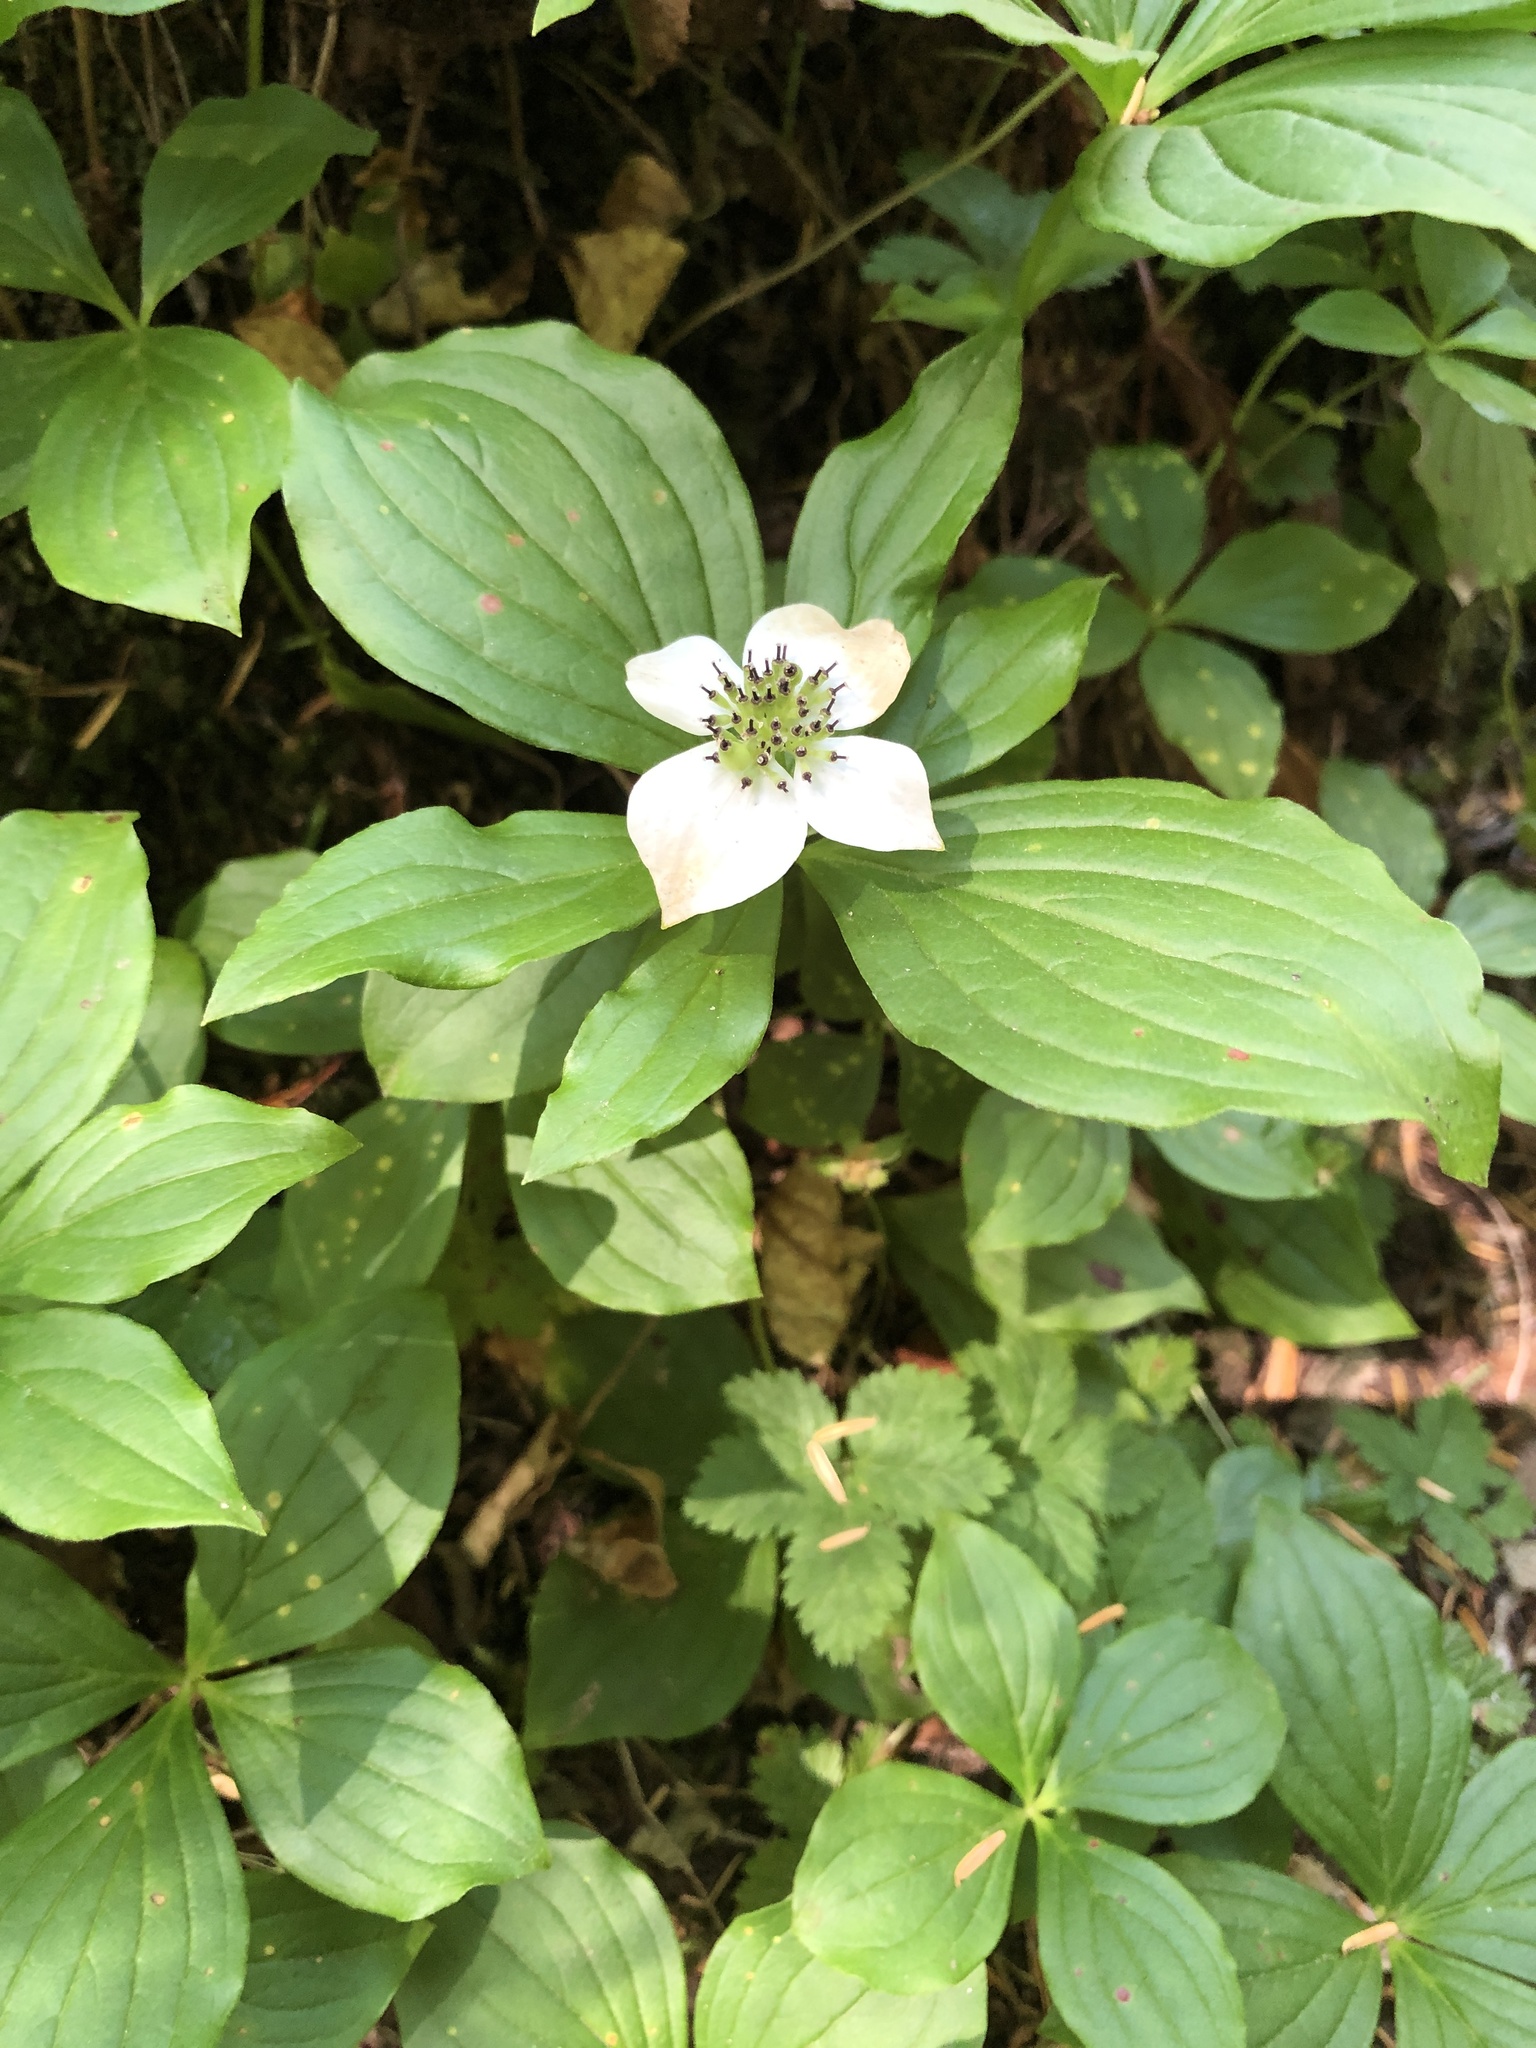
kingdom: Plantae
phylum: Tracheophyta
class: Magnoliopsida
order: Cornales
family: Cornaceae
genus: Cornus
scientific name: Cornus unalaschkensis
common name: Alaska bunchberry
